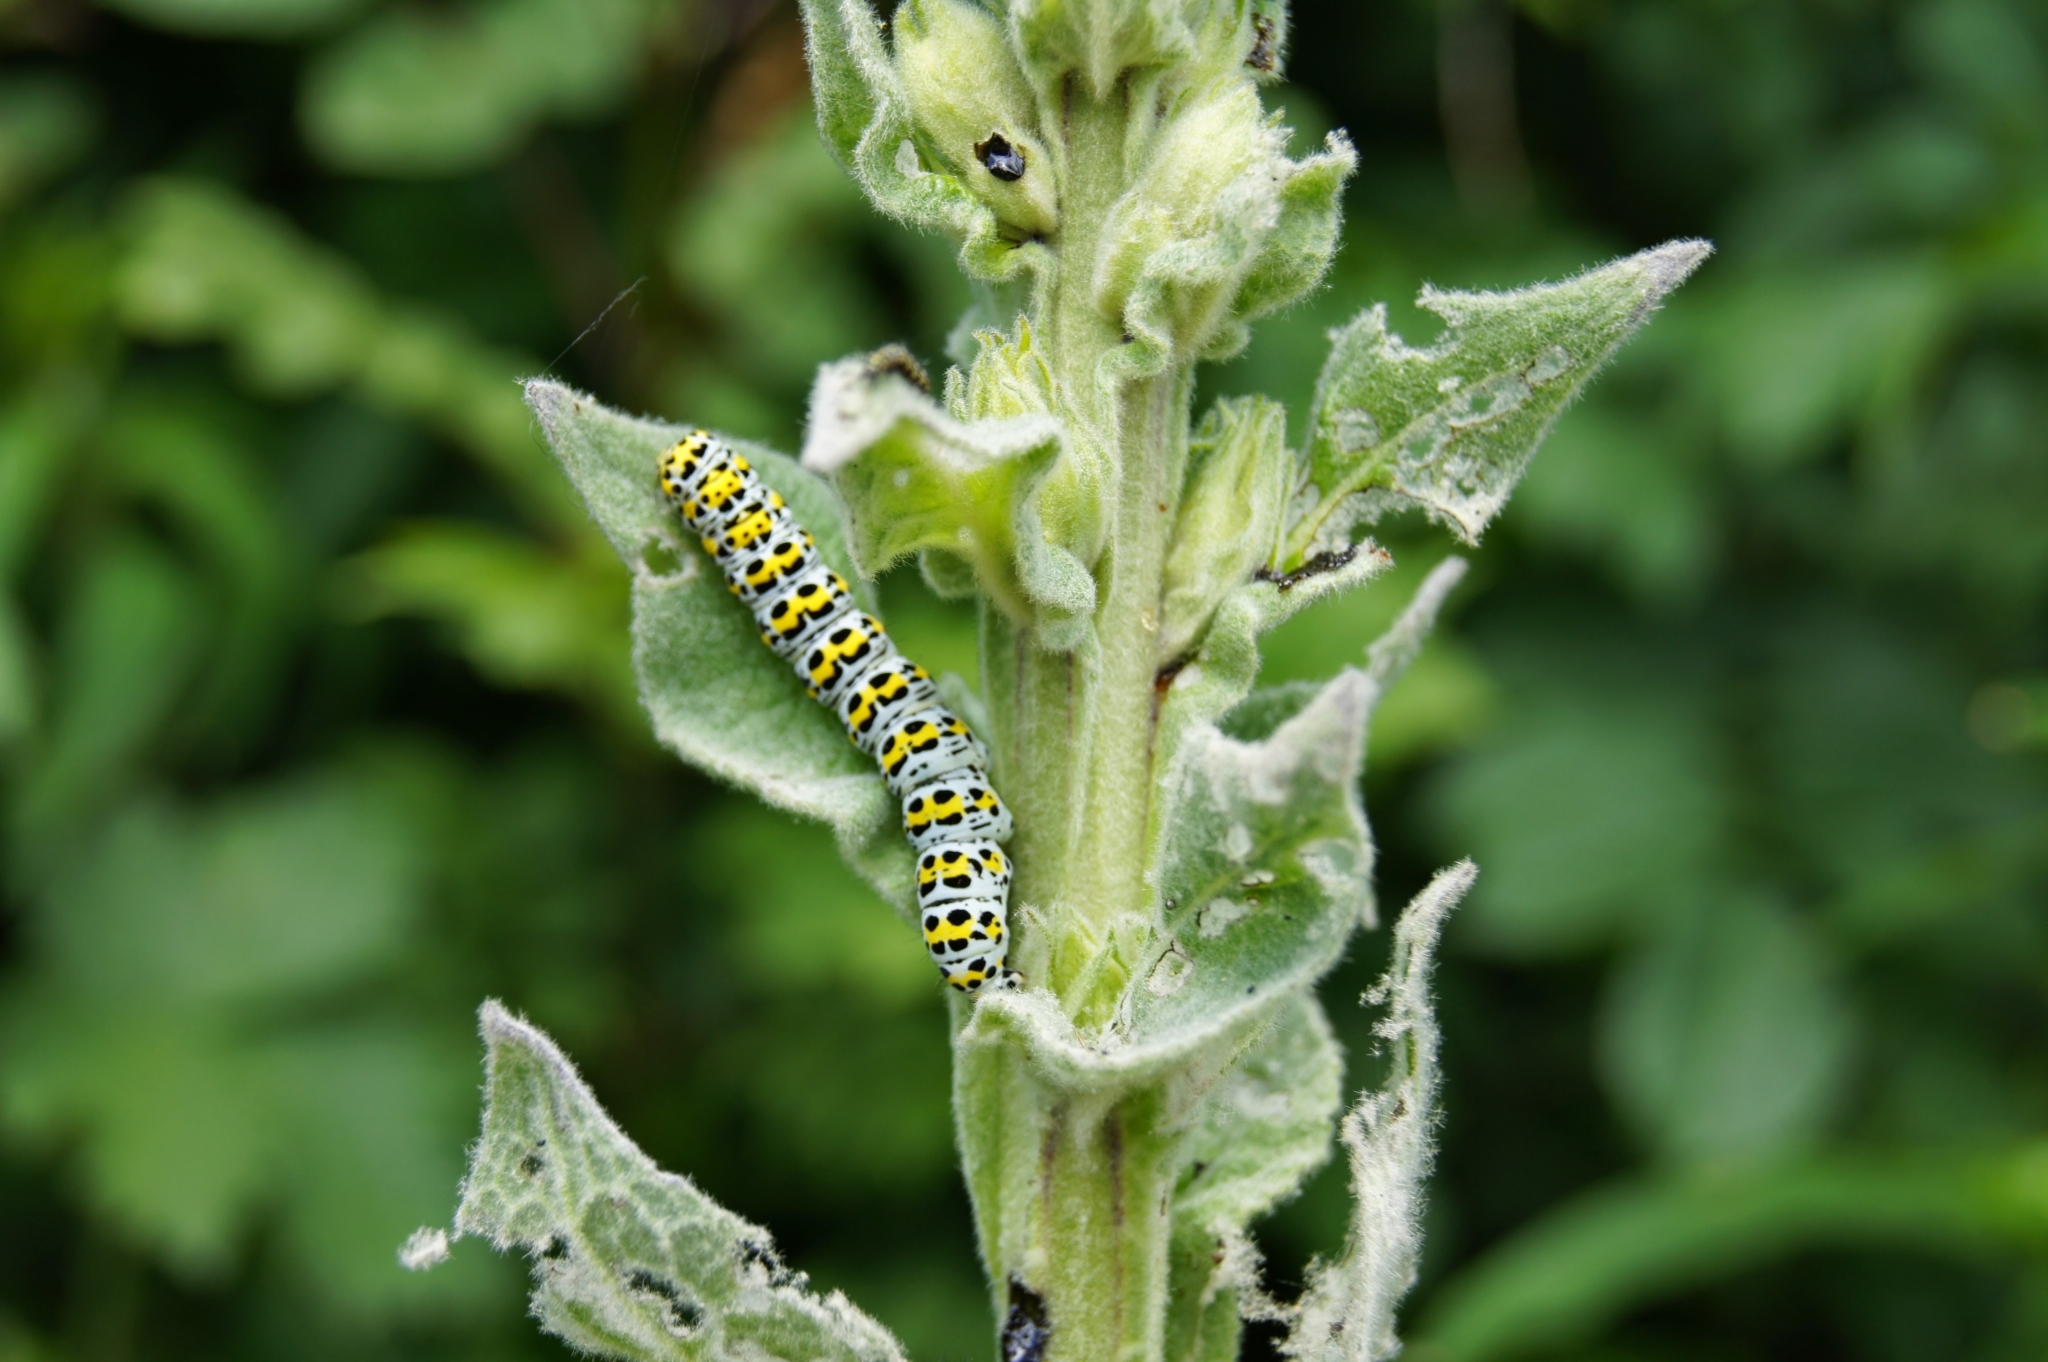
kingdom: Animalia
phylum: Arthropoda
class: Insecta
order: Lepidoptera
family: Noctuidae
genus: Cucullia
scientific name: Cucullia verbasci
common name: Mullein
